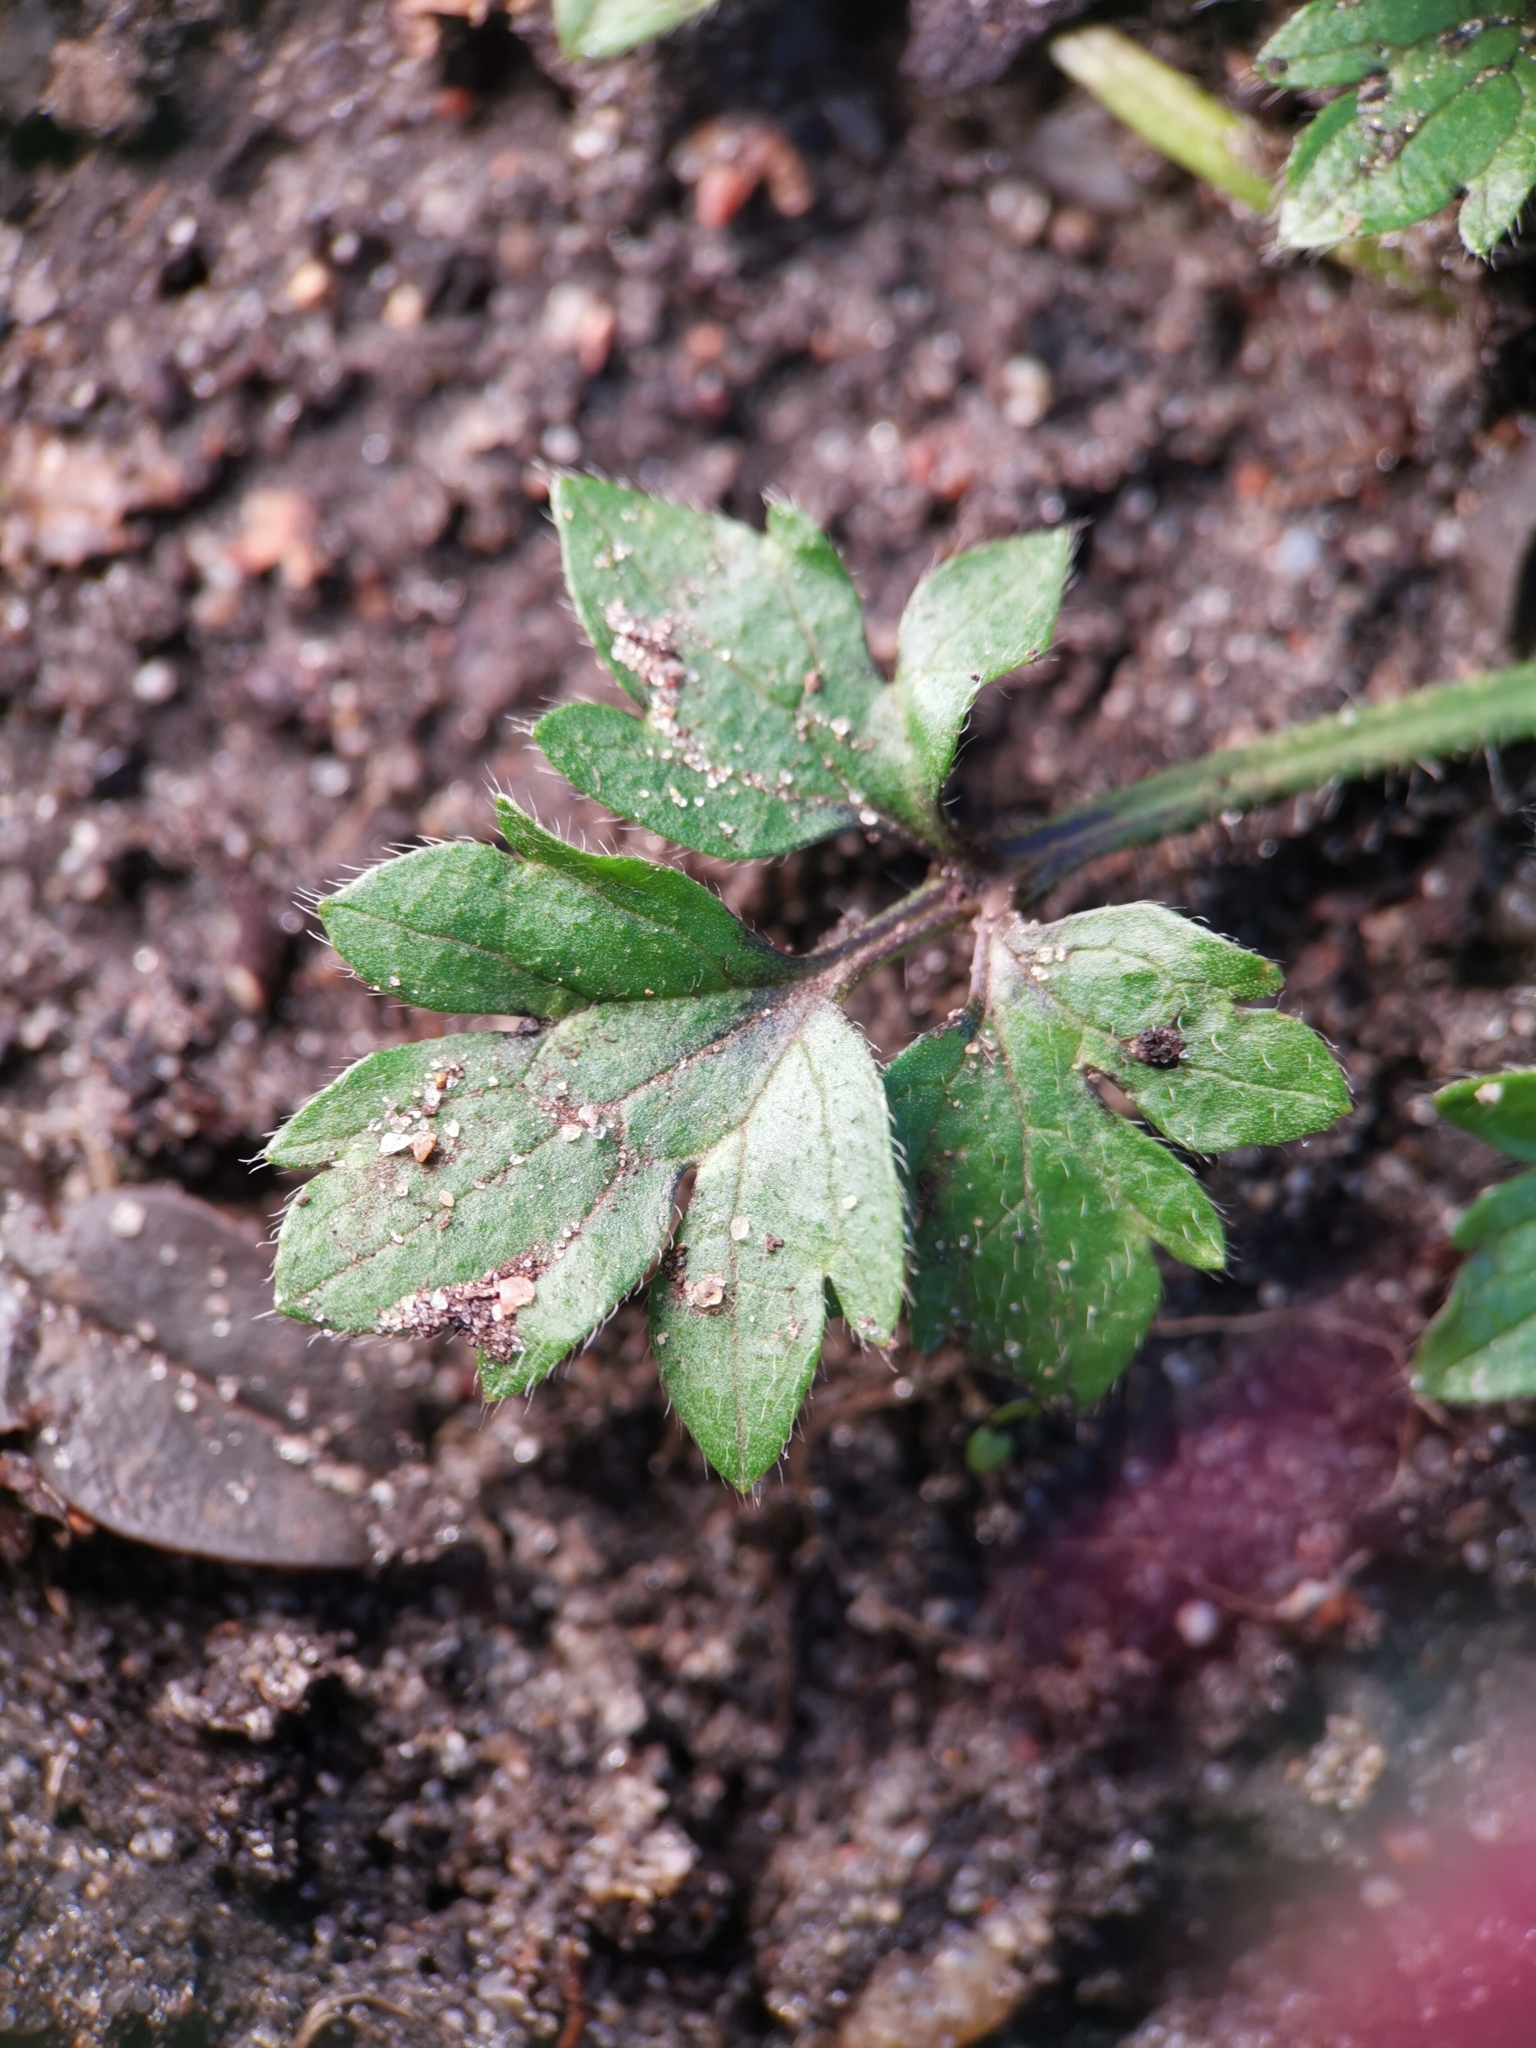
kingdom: Plantae
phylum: Tracheophyta
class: Magnoliopsida
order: Ranunculales
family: Ranunculaceae
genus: Ranunculus
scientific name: Ranunculus repens
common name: Creeping buttercup
